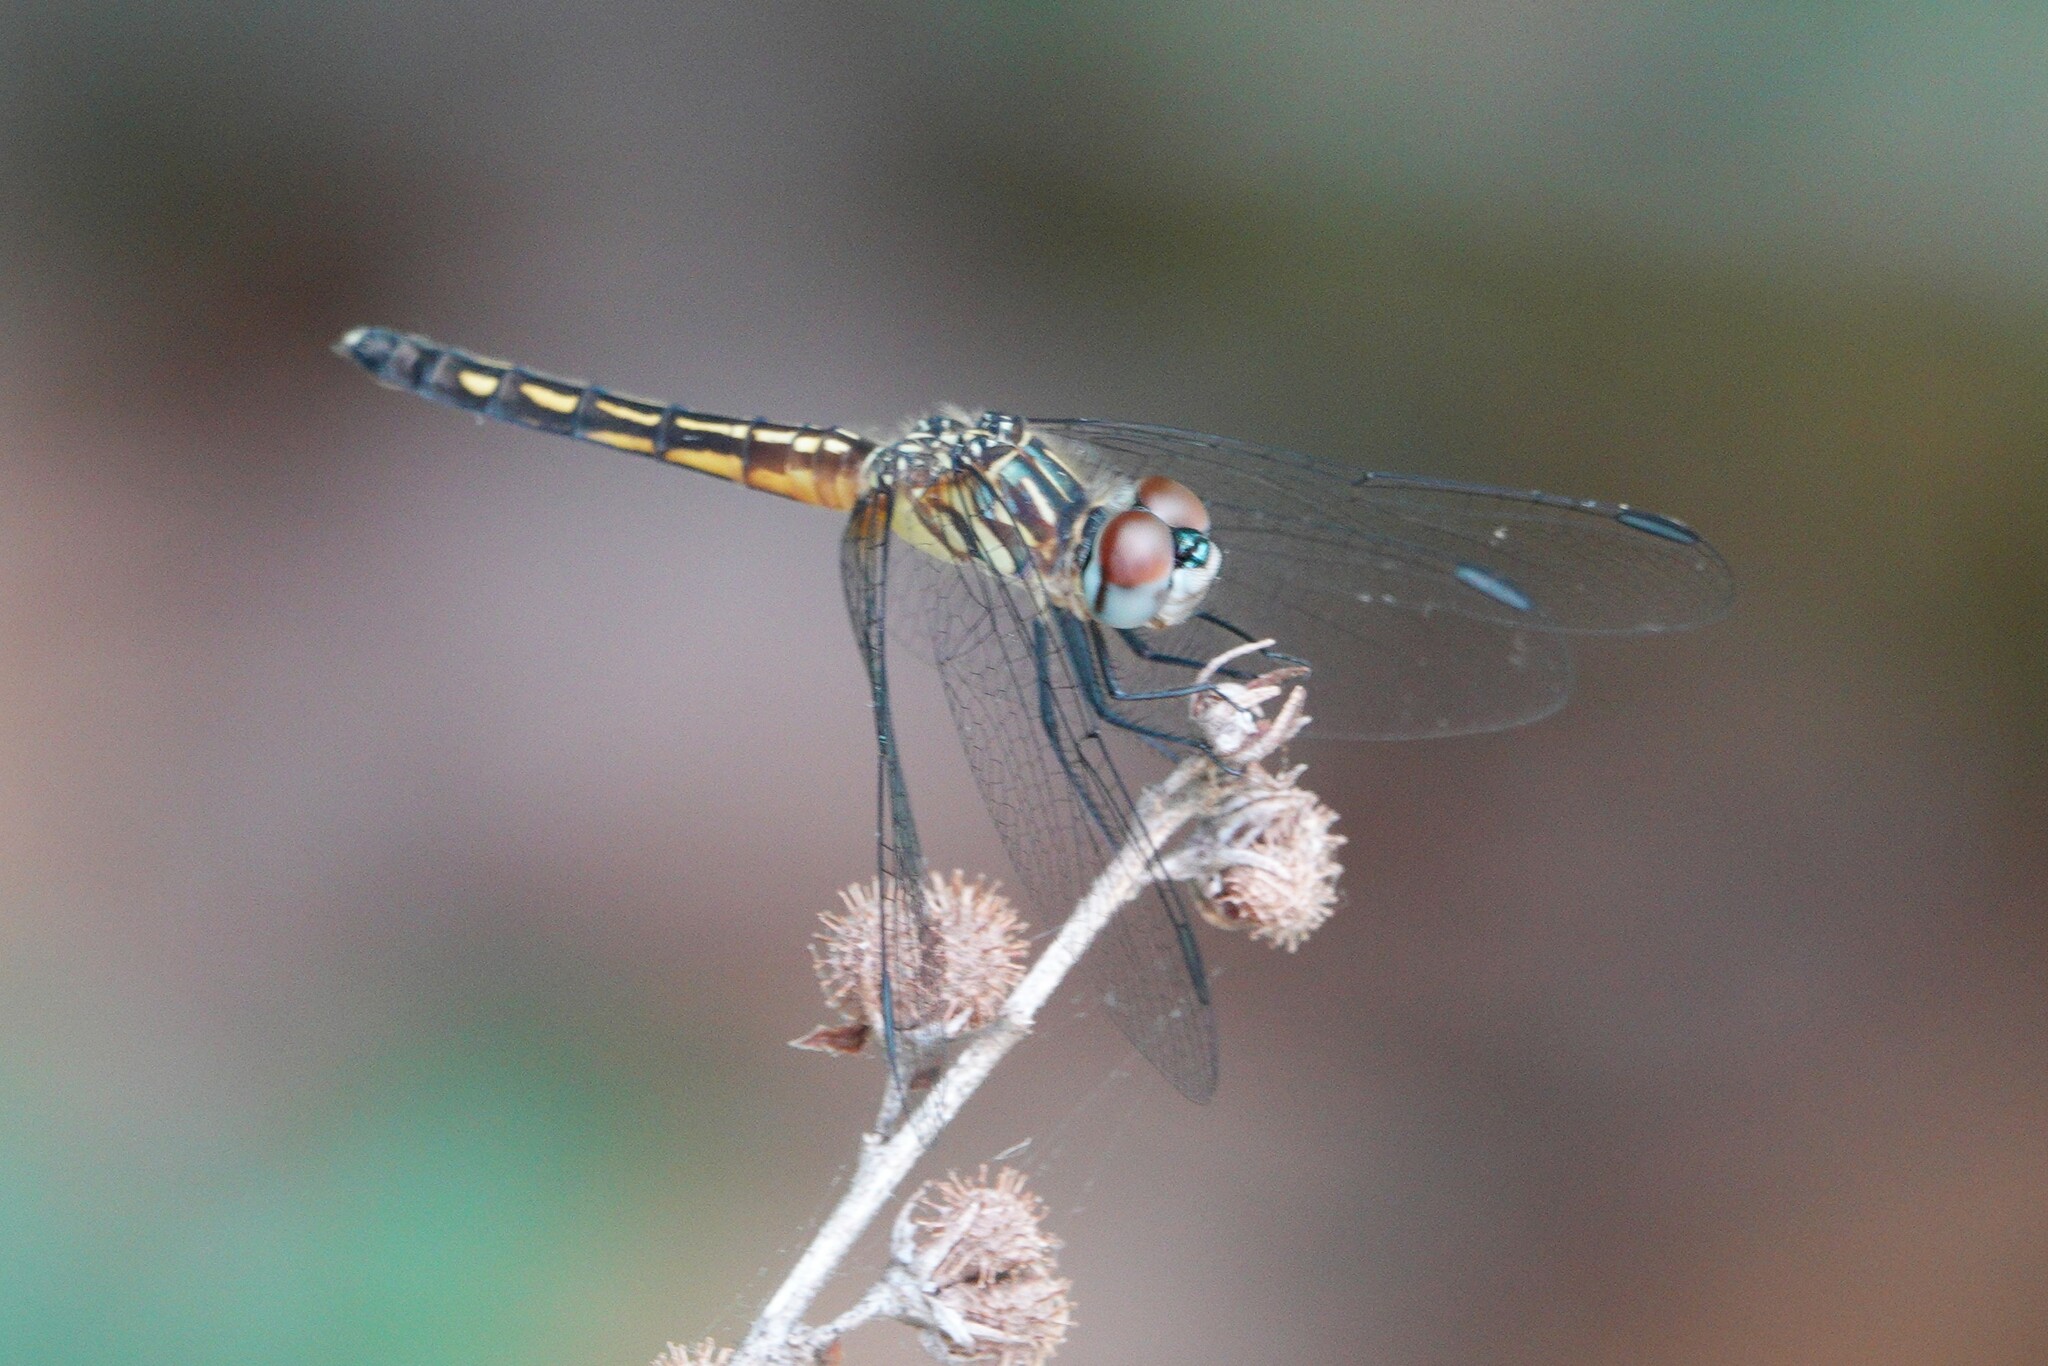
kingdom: Animalia
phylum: Arthropoda
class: Insecta
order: Odonata
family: Libellulidae
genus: Pachydiplax
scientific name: Pachydiplax longipennis
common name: Blue dasher
